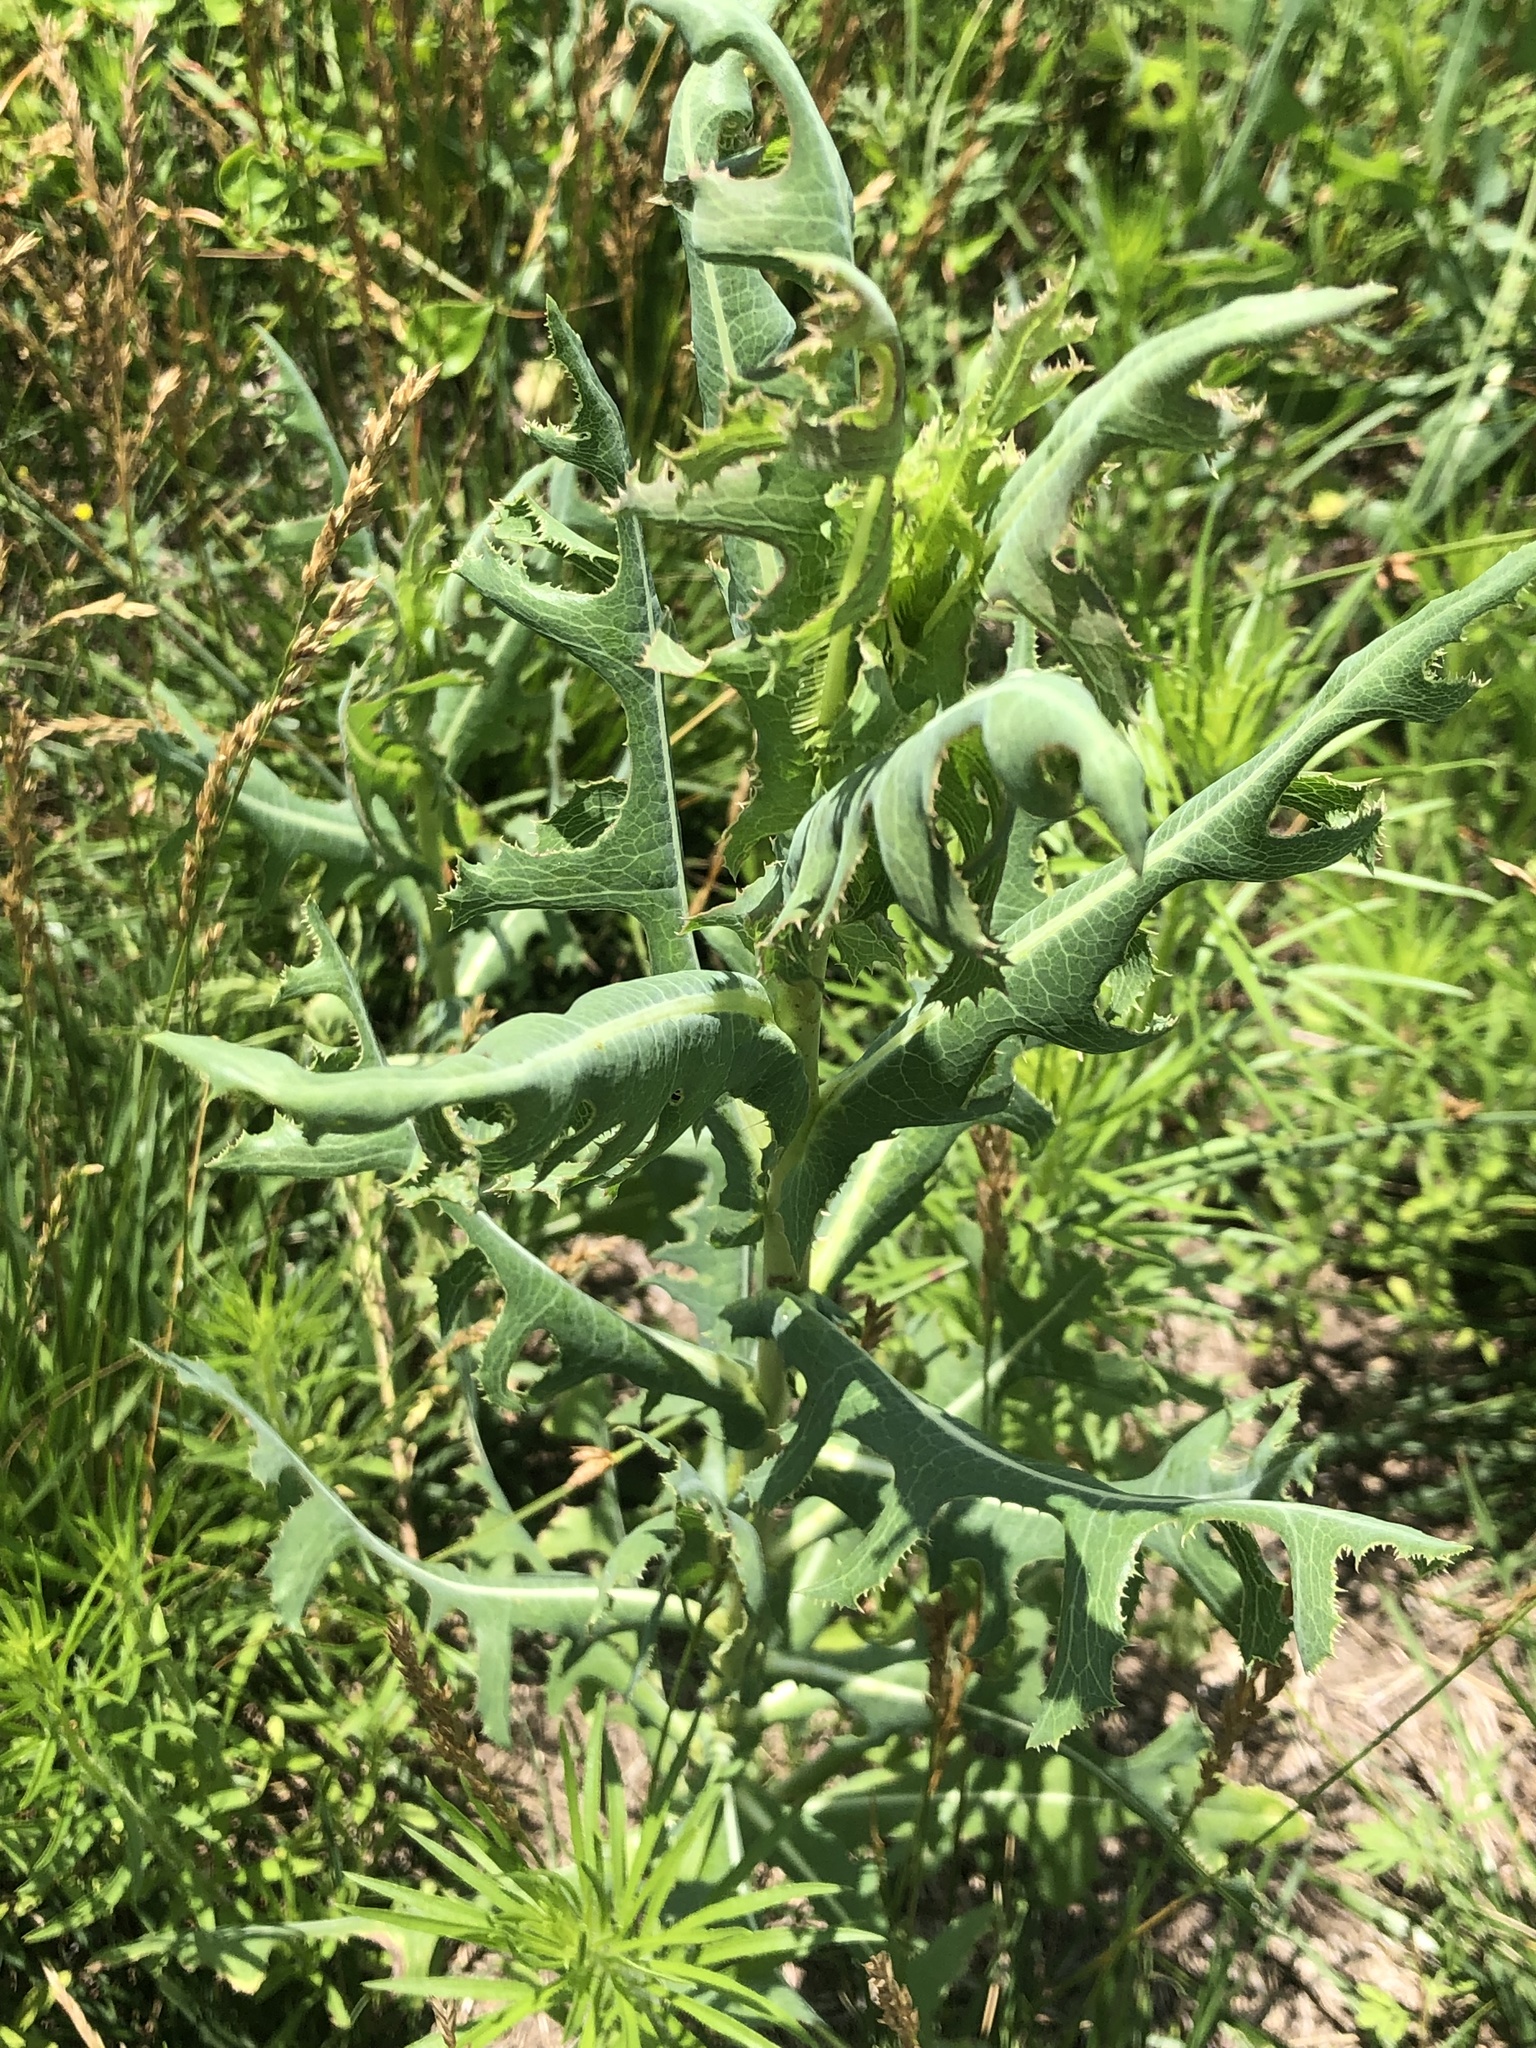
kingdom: Plantae
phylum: Tracheophyta
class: Magnoliopsida
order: Asterales
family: Asteraceae
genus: Silphium
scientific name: Silphium laciniatum
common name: Polarplant
